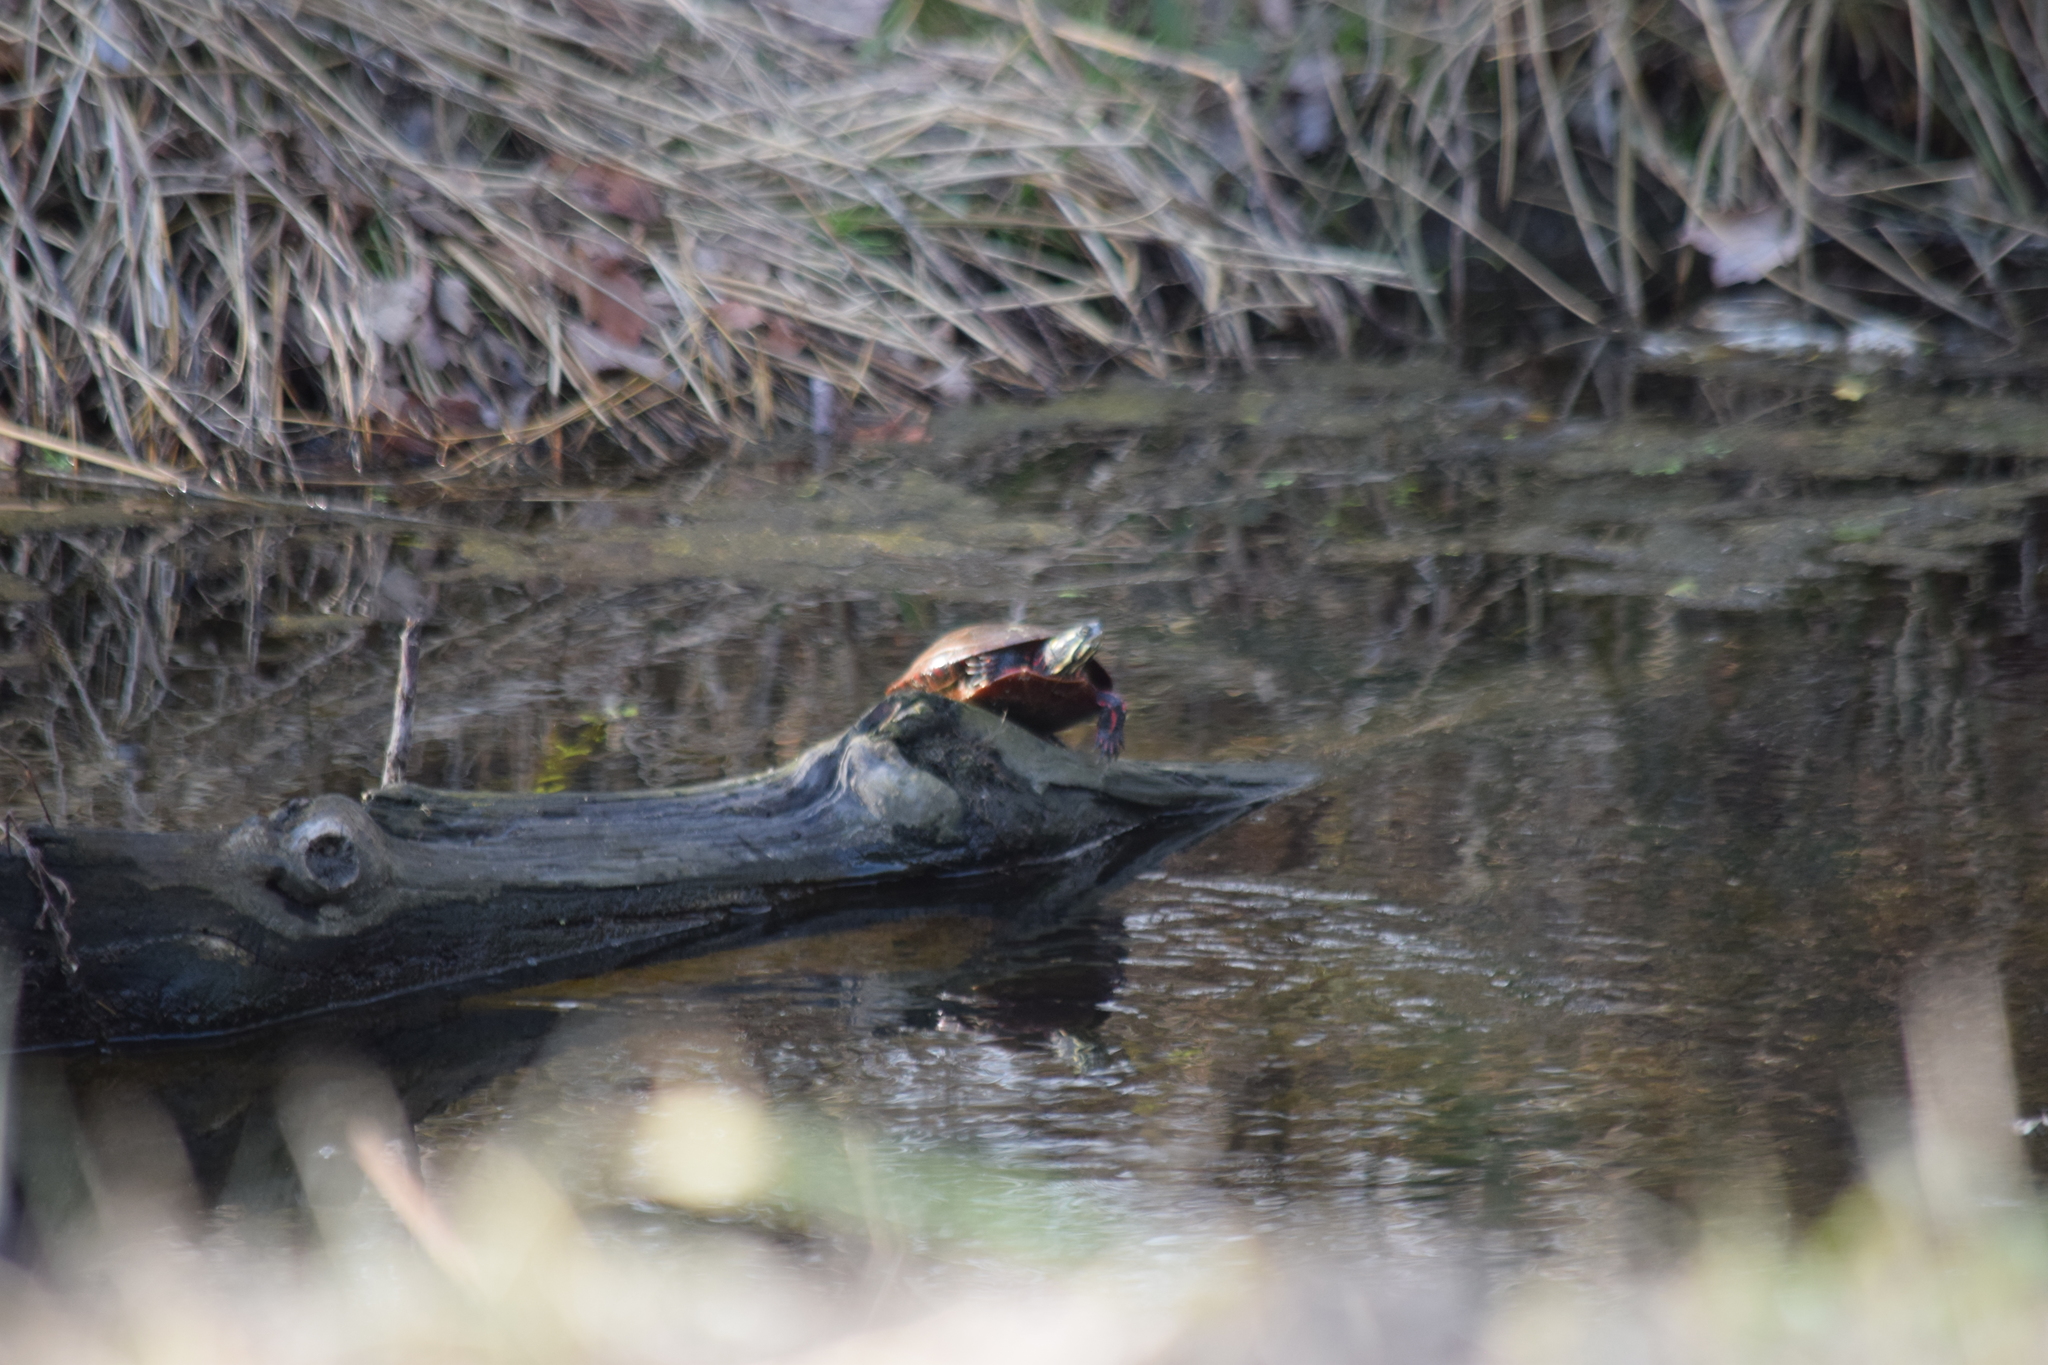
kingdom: Animalia
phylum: Chordata
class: Testudines
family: Emydidae
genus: Chrysemys
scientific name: Chrysemys picta
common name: Painted turtle
